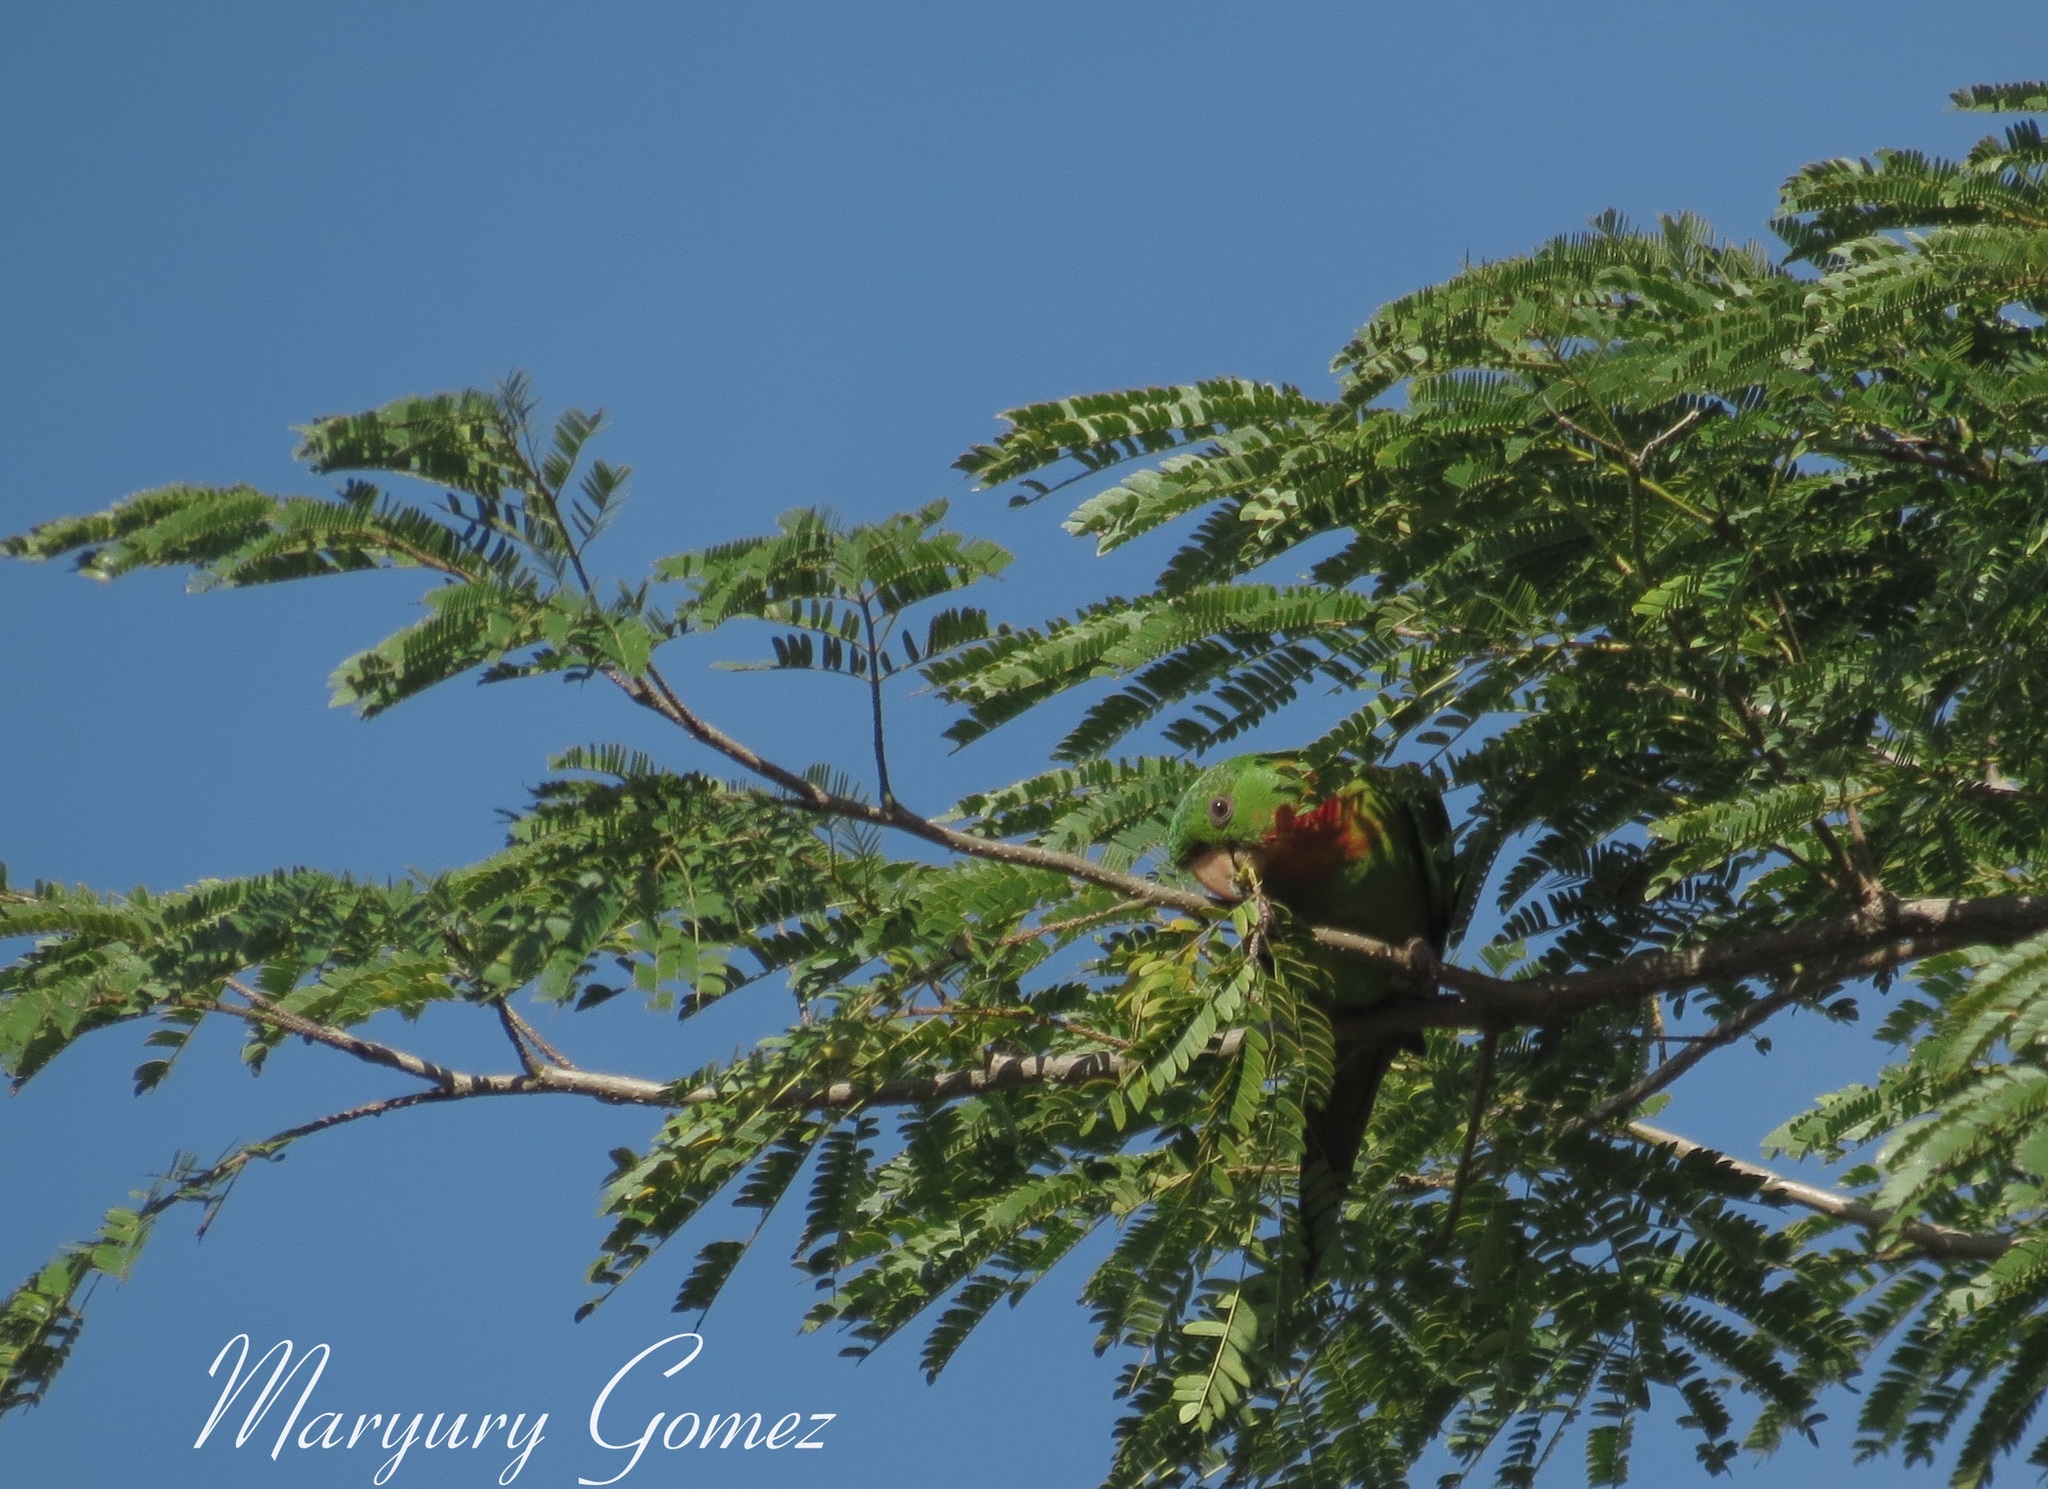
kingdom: Animalia
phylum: Chordata
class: Aves
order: Psittaciformes
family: Psittacidae
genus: Aratinga
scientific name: Aratinga holochlora
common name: Green parakeet
